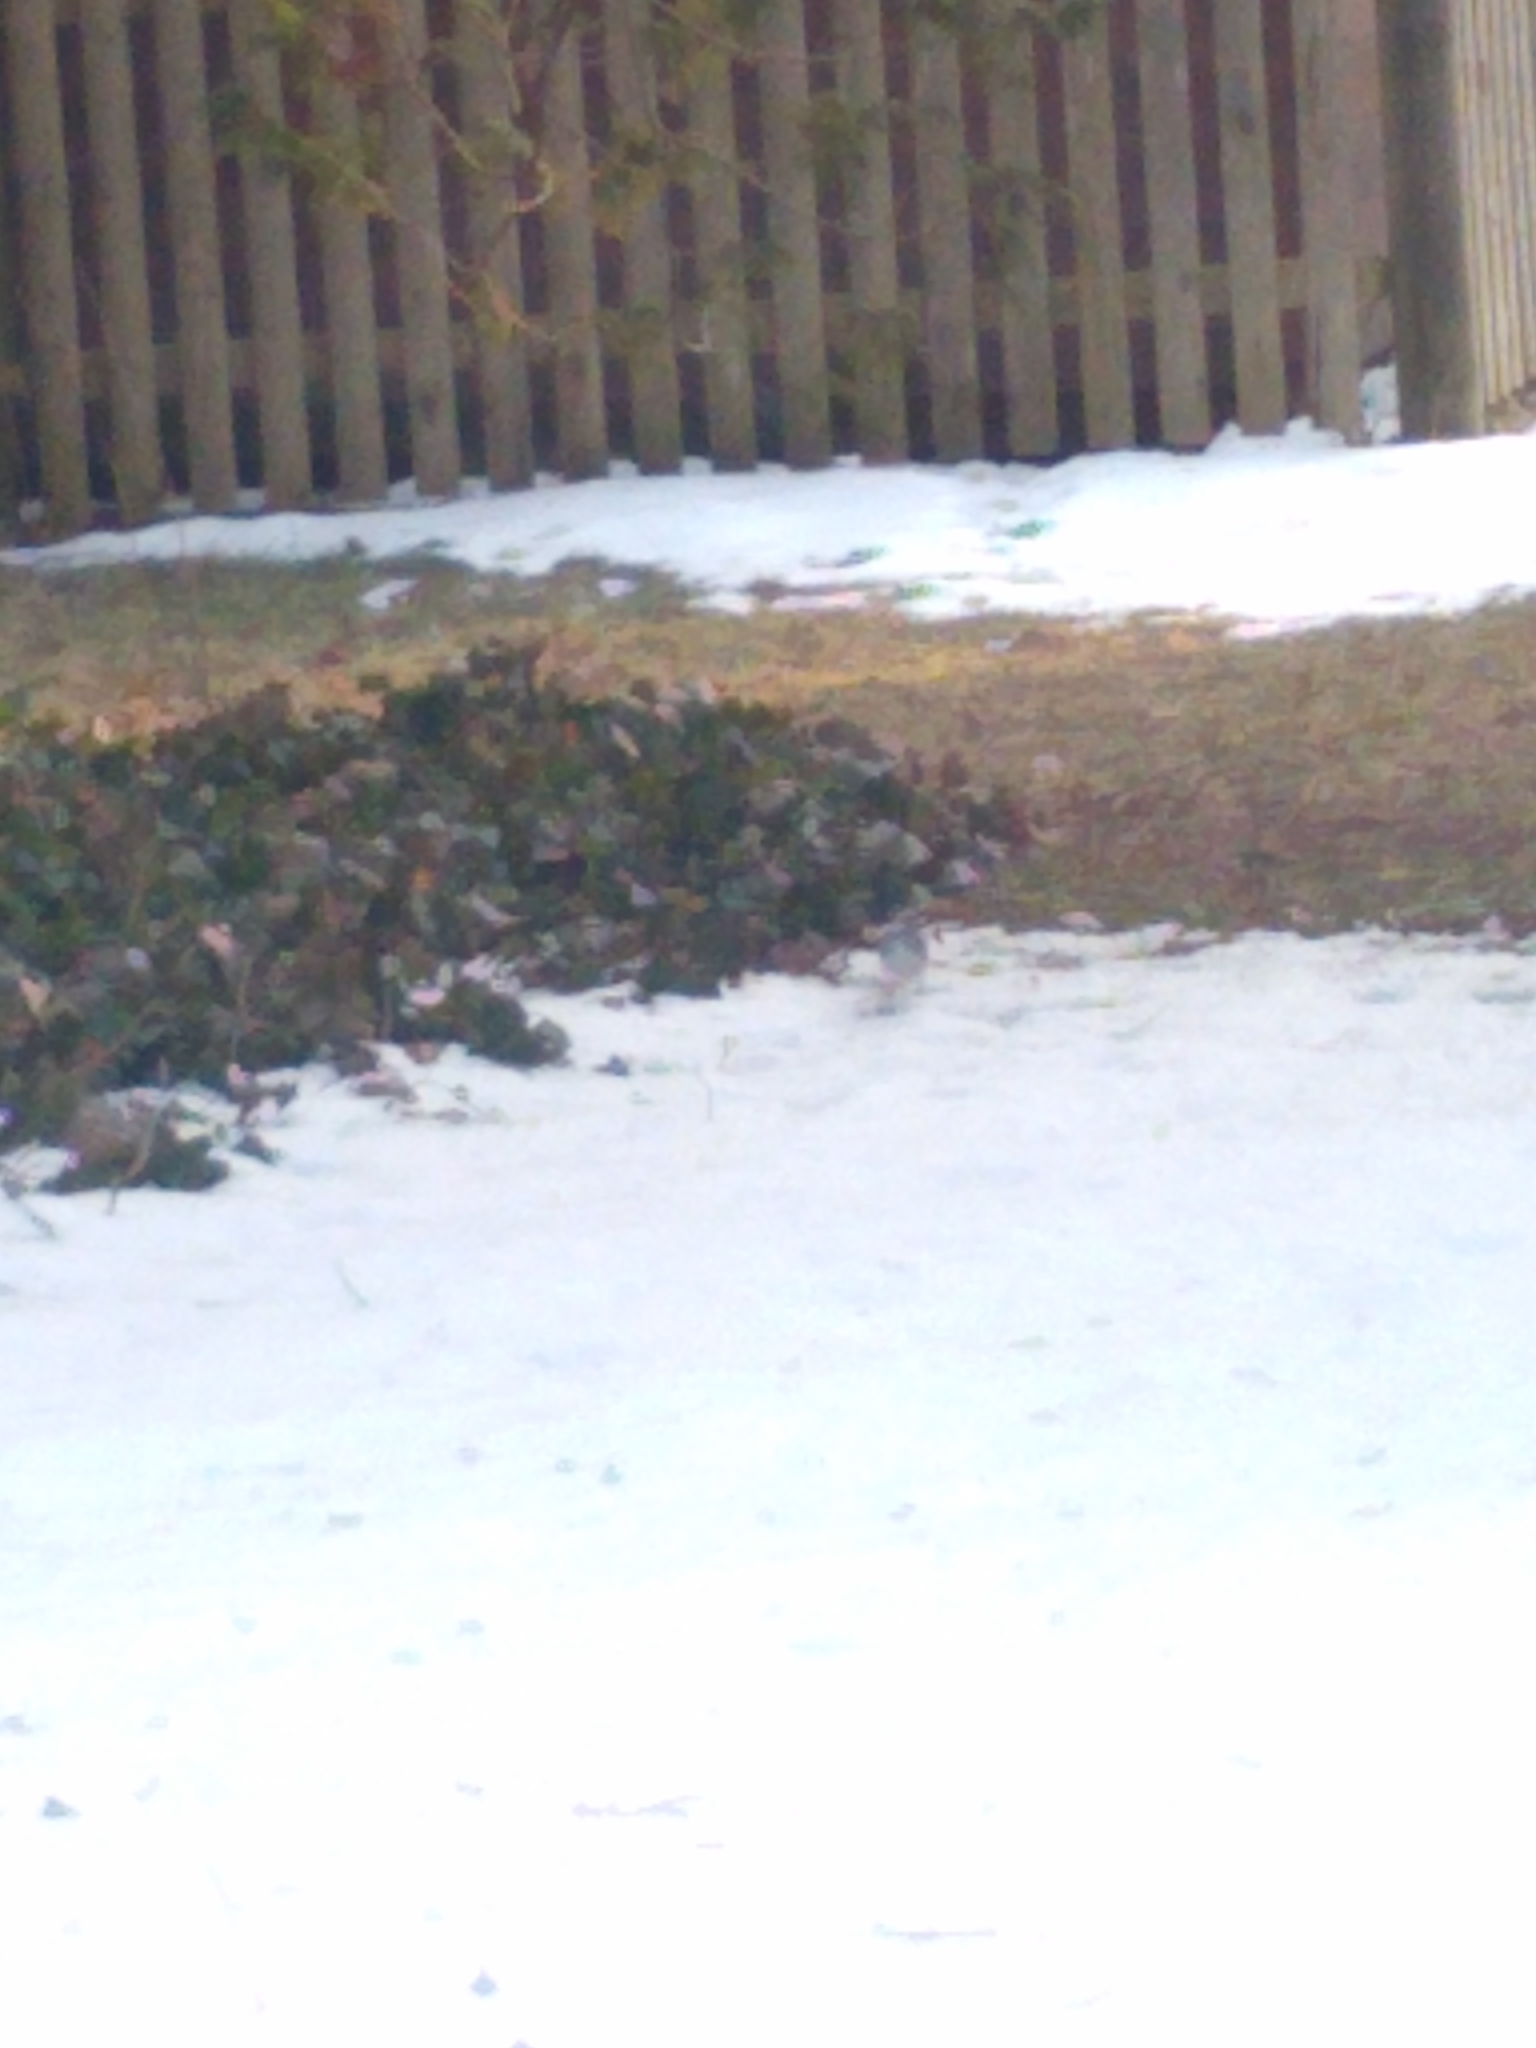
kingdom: Animalia
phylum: Chordata
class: Aves
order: Passeriformes
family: Fringillidae
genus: Haemorhous
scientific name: Haemorhous mexicanus
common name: House finch
